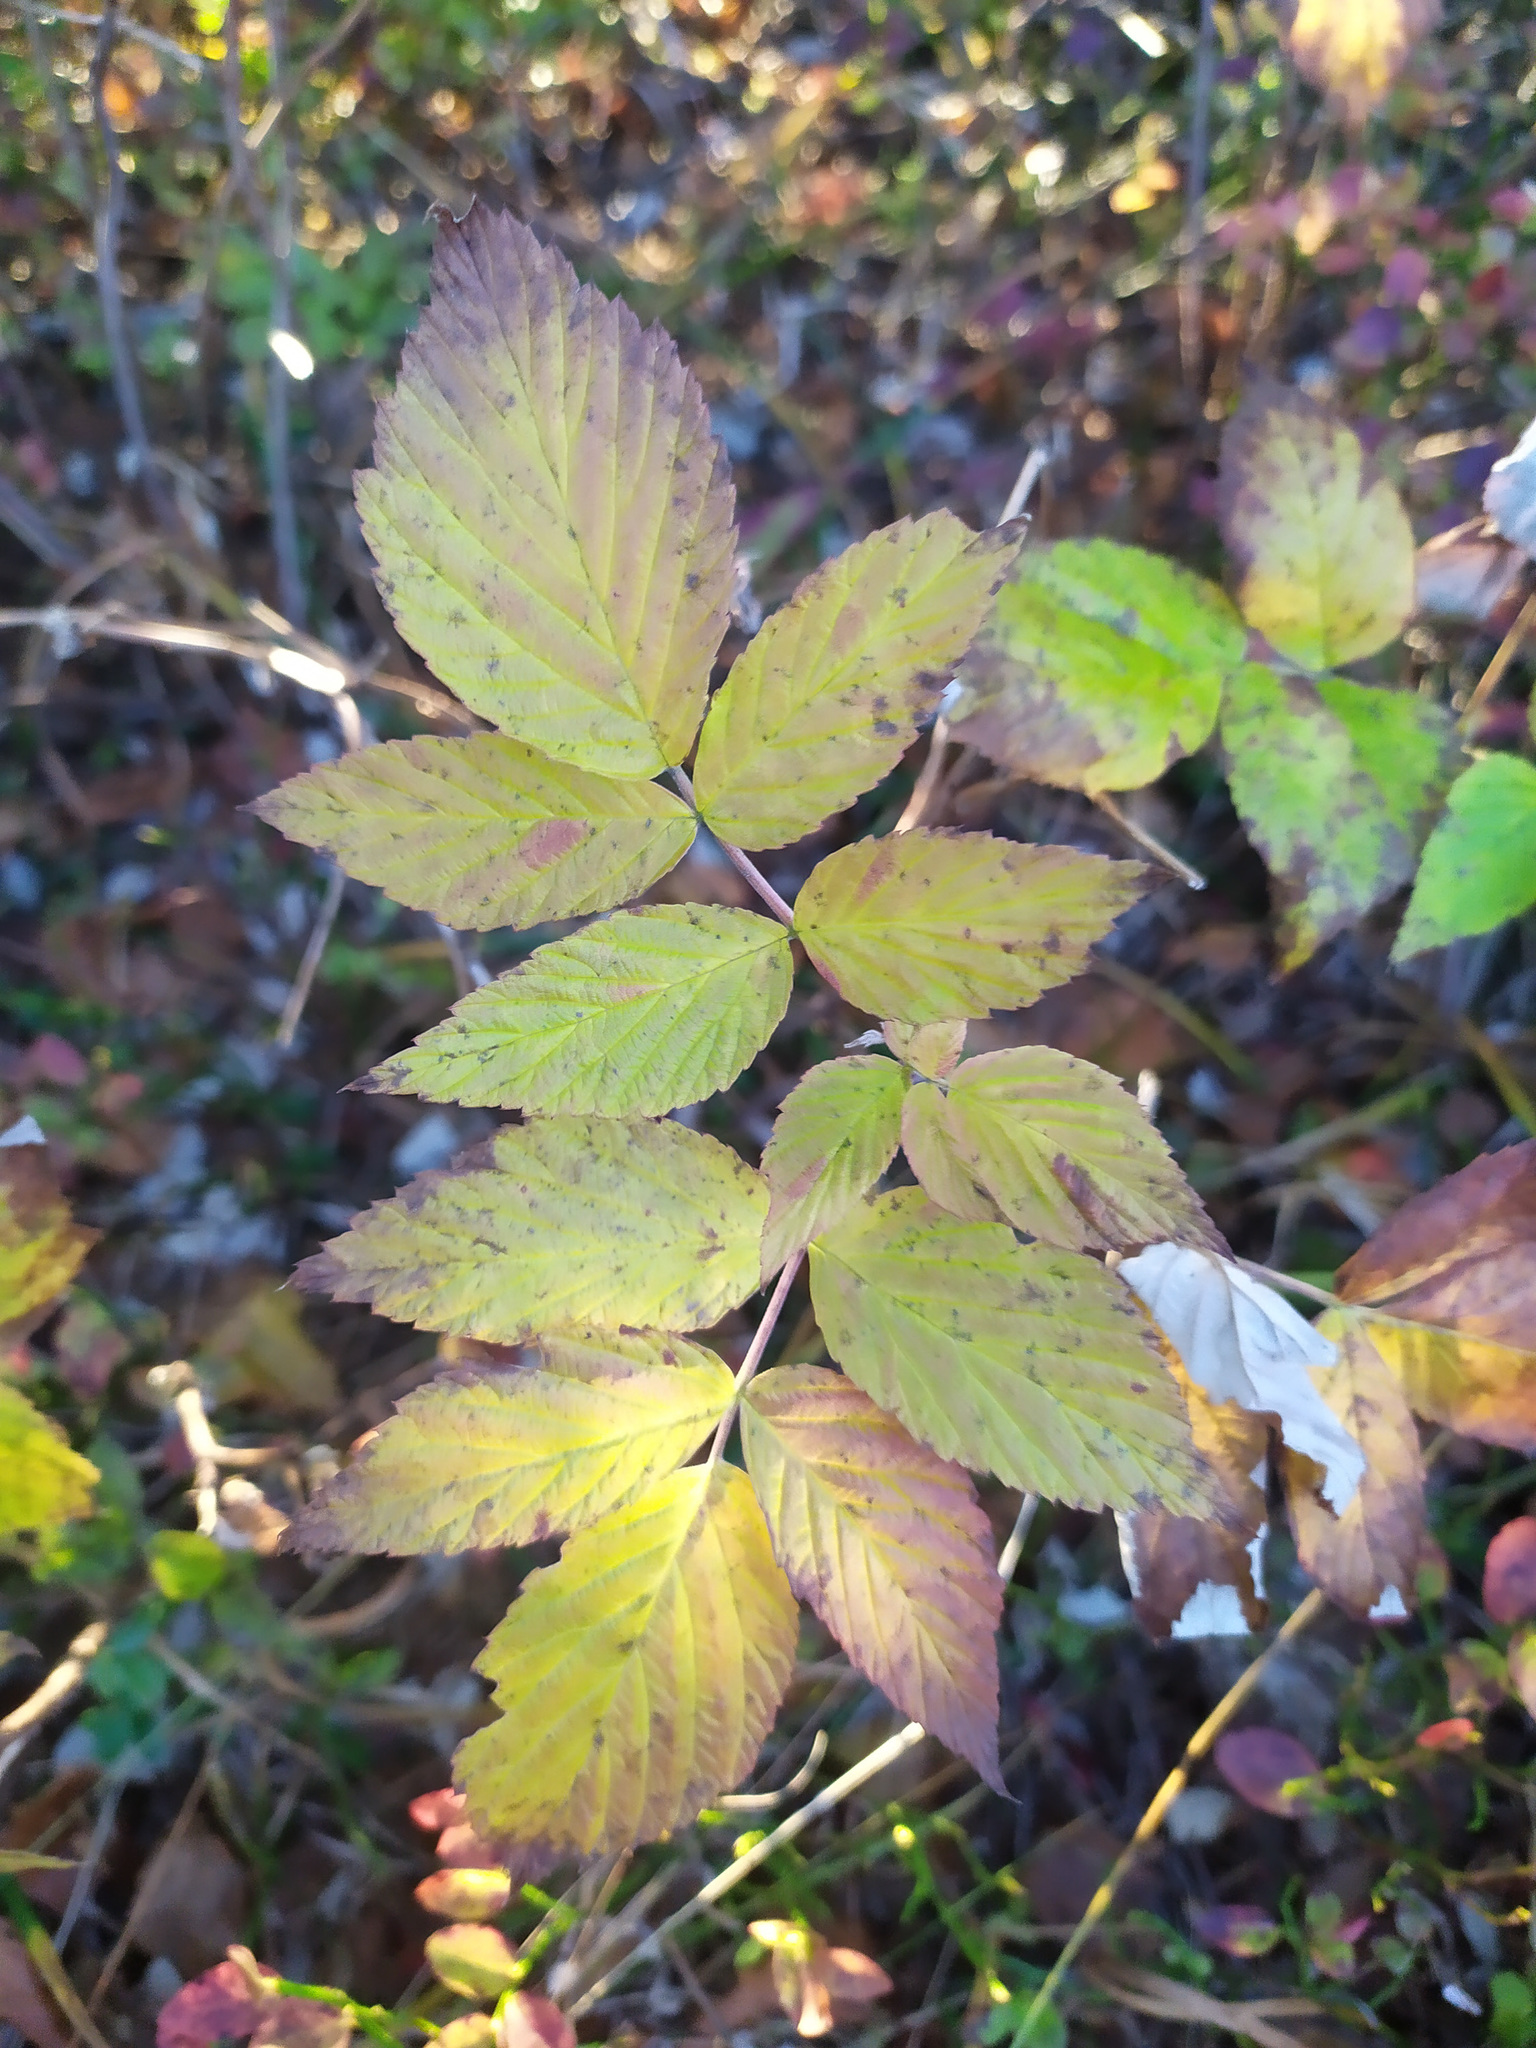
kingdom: Plantae
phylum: Tracheophyta
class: Magnoliopsida
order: Rosales
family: Rosaceae
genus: Rubus
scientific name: Rubus idaeus
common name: Raspberry
